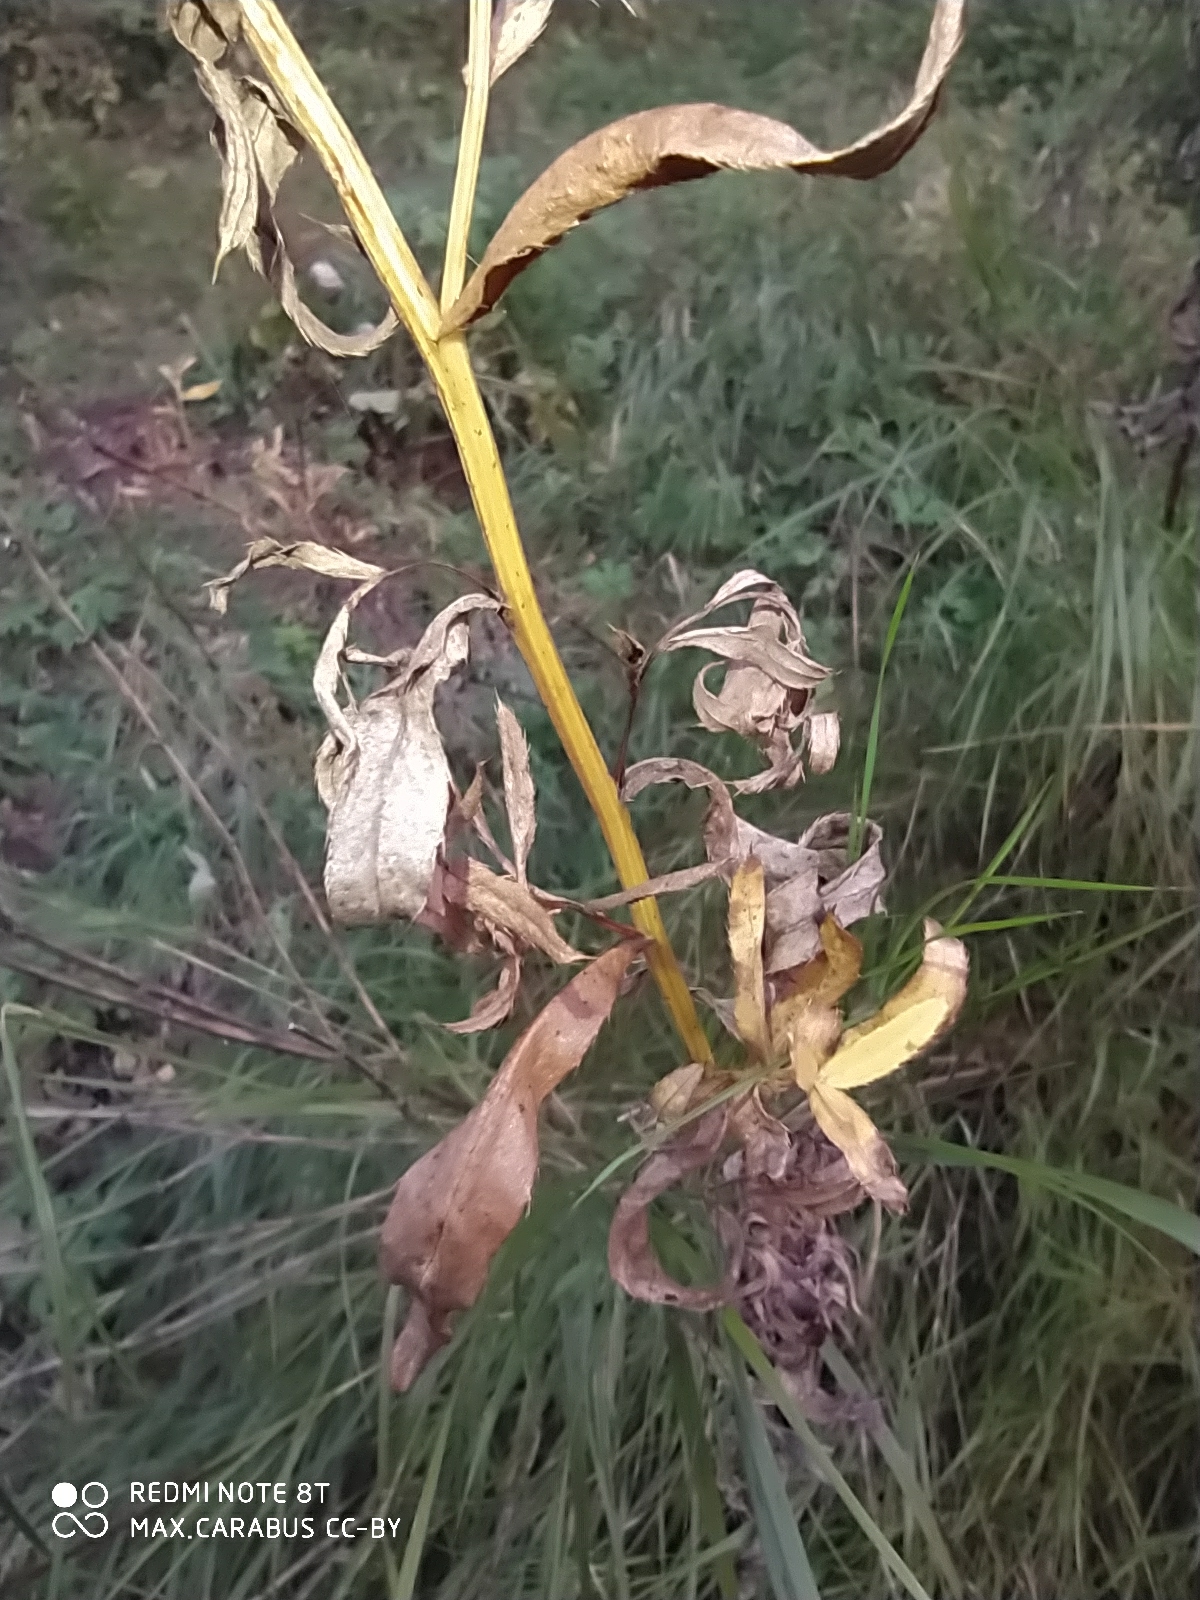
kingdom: Plantae
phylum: Tracheophyta
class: Magnoliopsida
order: Asterales
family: Asteraceae
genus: Cirsium
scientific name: Cirsium arvense
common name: Creeping thistle
